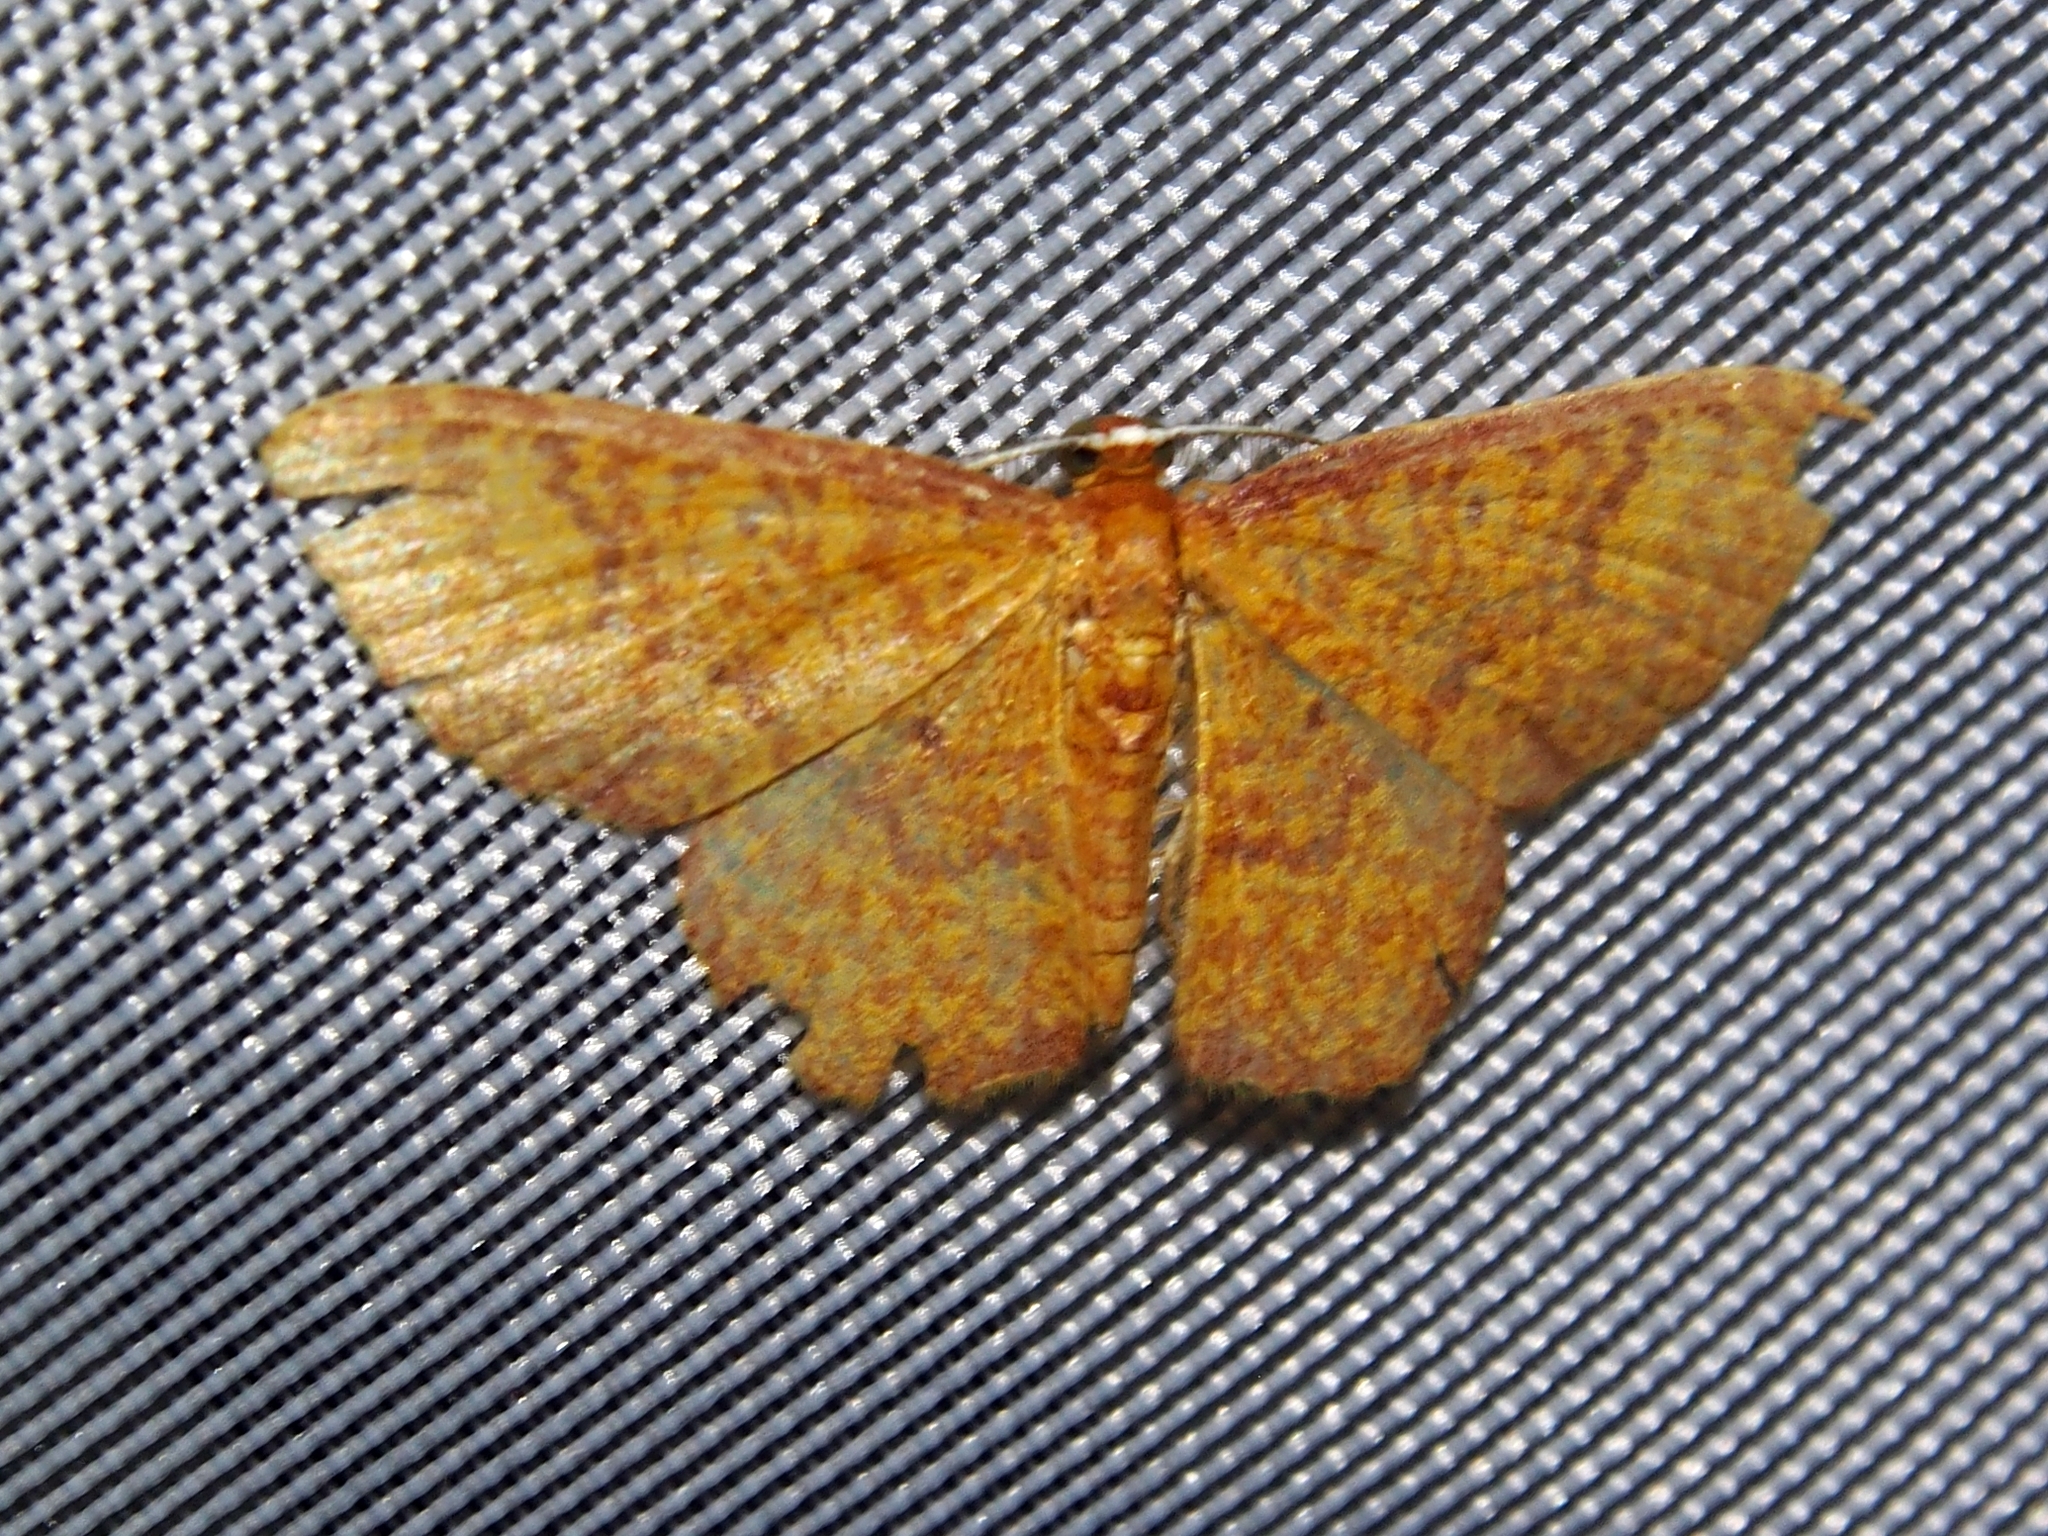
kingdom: Animalia
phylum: Arthropoda
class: Insecta
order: Lepidoptera
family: Geometridae
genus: Eois
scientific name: Eois dryope
